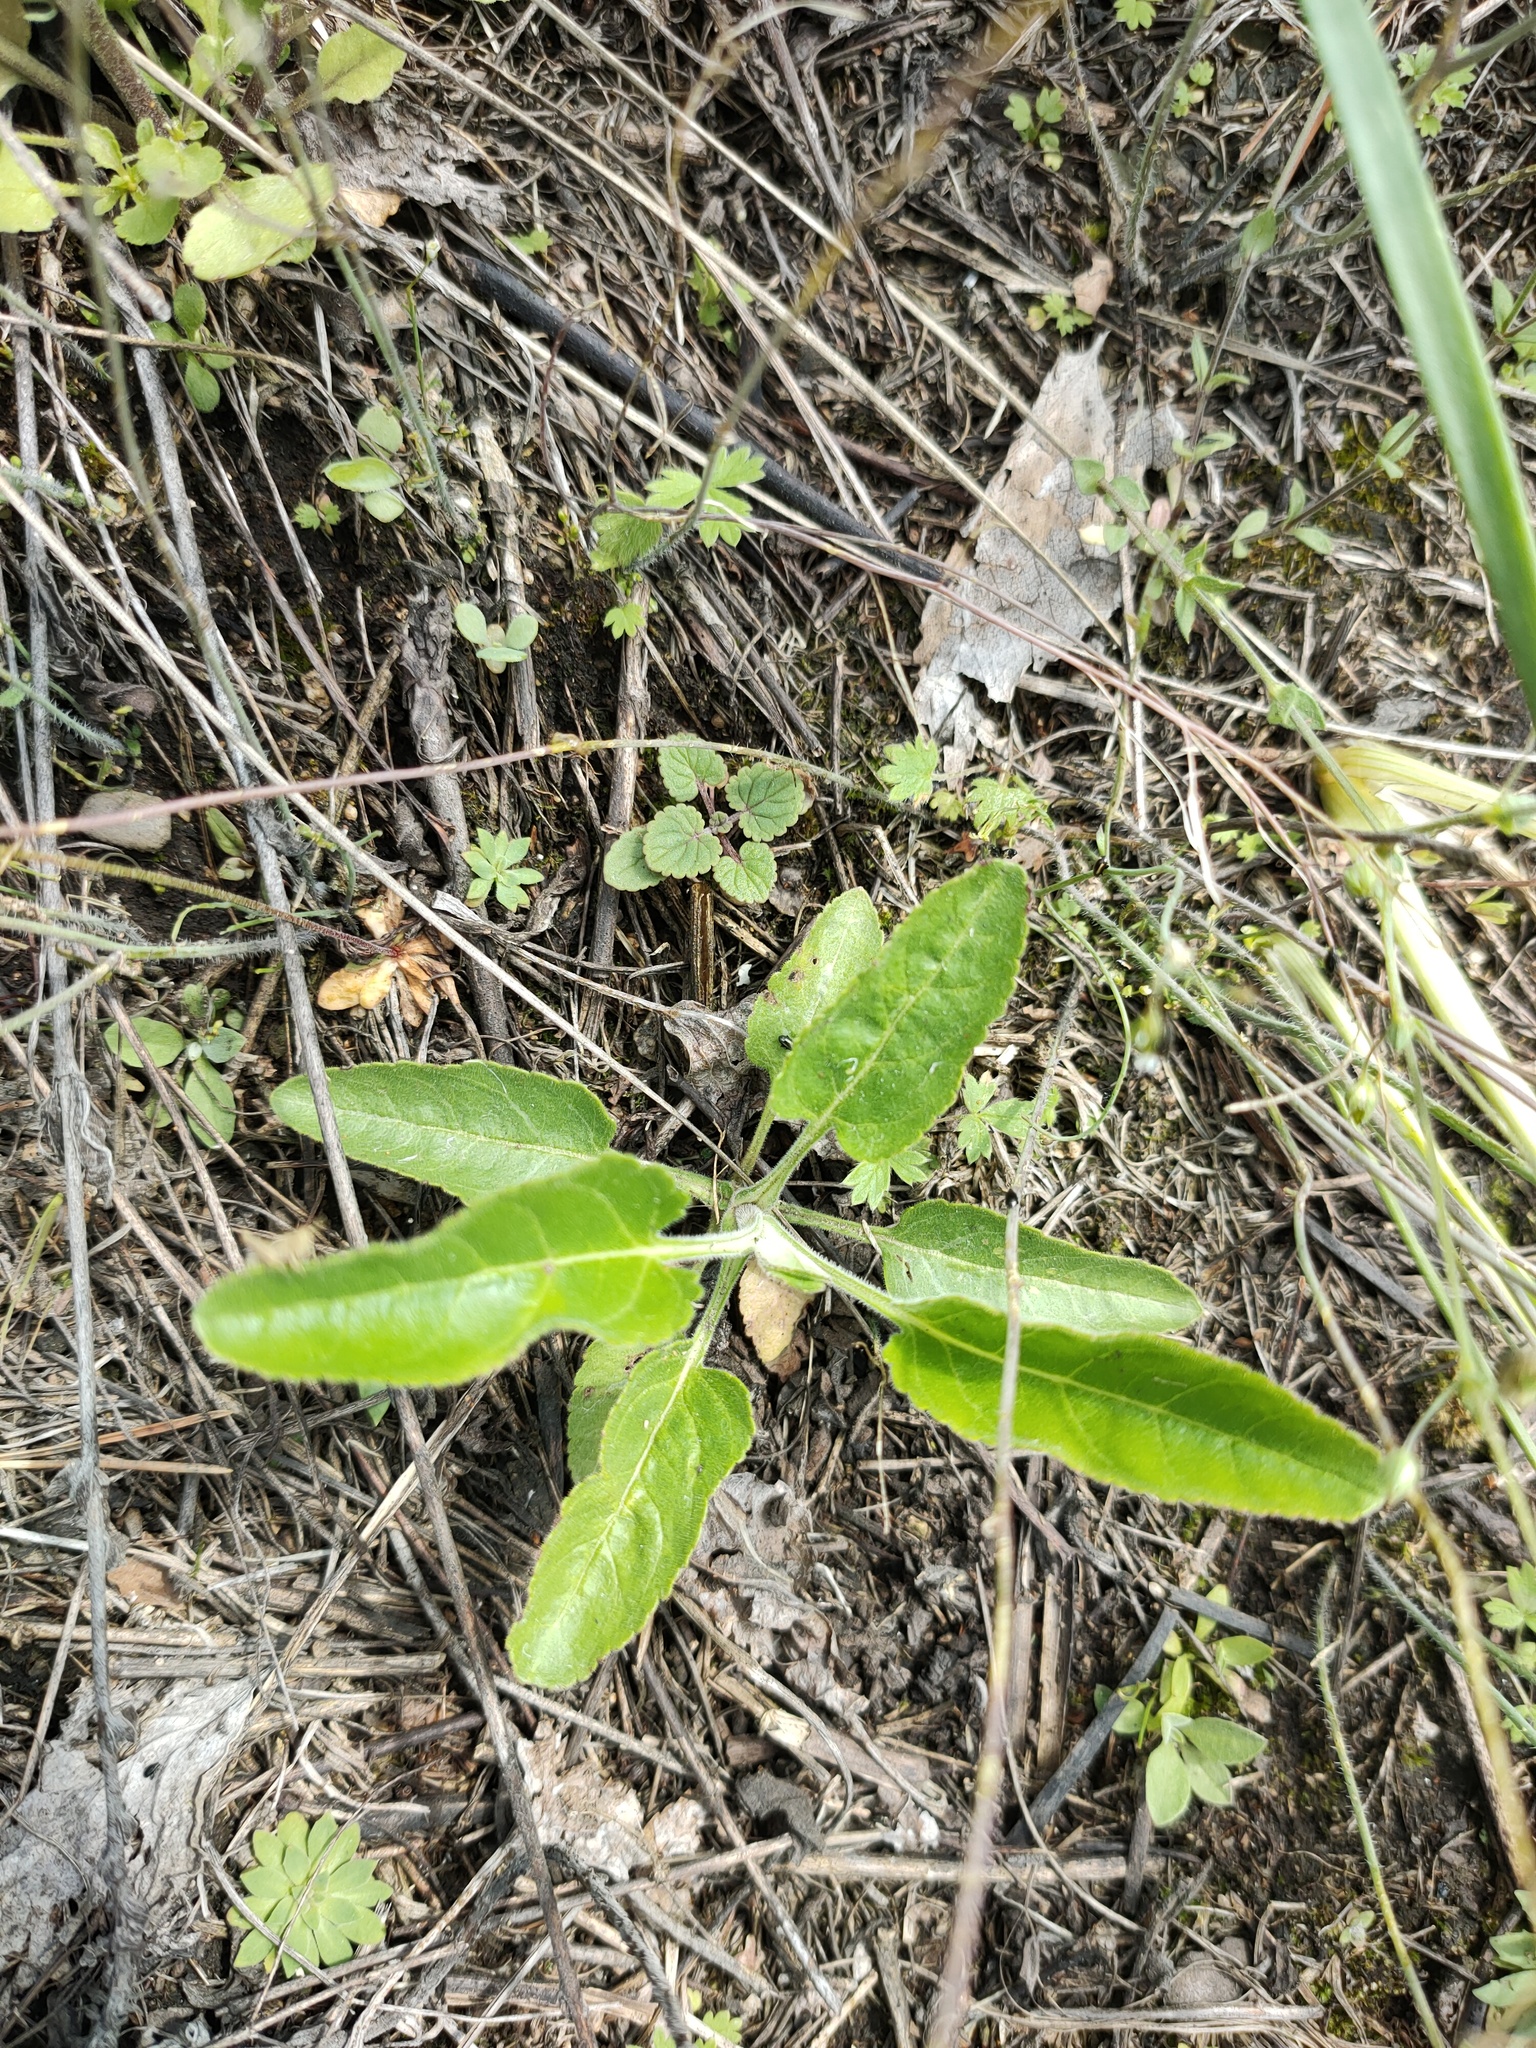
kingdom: Plantae
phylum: Tracheophyta
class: Magnoliopsida
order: Lamiales
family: Plantaginaceae
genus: Veronica
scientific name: Veronica spicata
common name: Spiked speedwell
